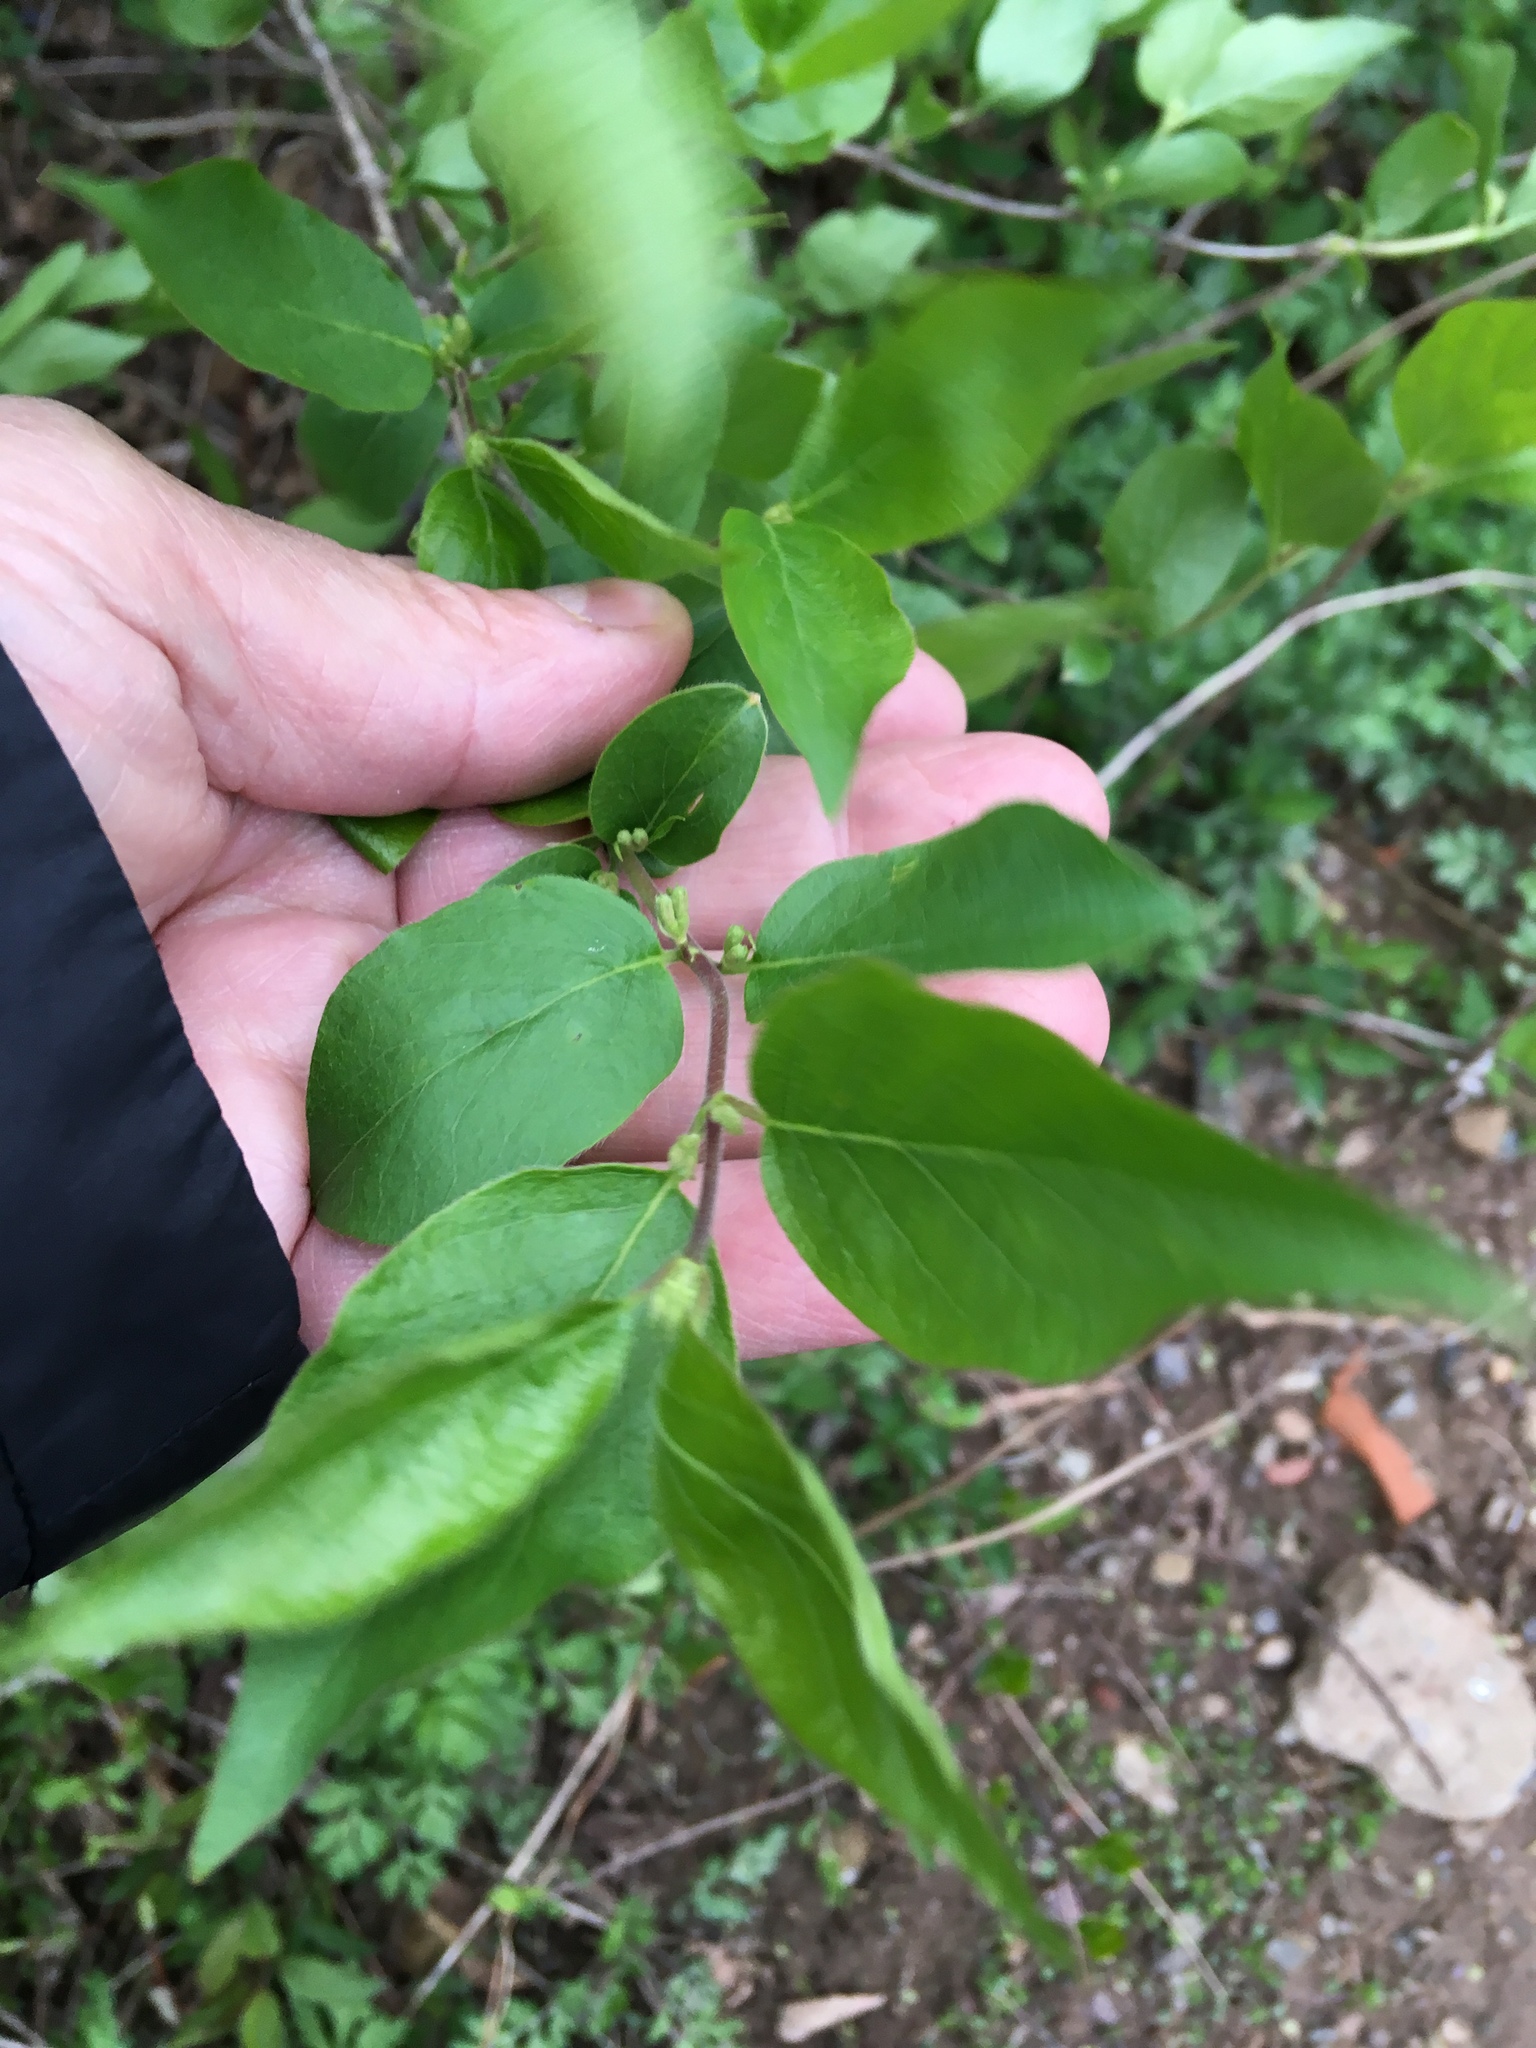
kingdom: Plantae
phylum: Tracheophyta
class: Magnoliopsida
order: Dipsacales
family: Caprifoliaceae
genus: Lonicera
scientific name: Lonicera maackii
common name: Amur honeysuckle
